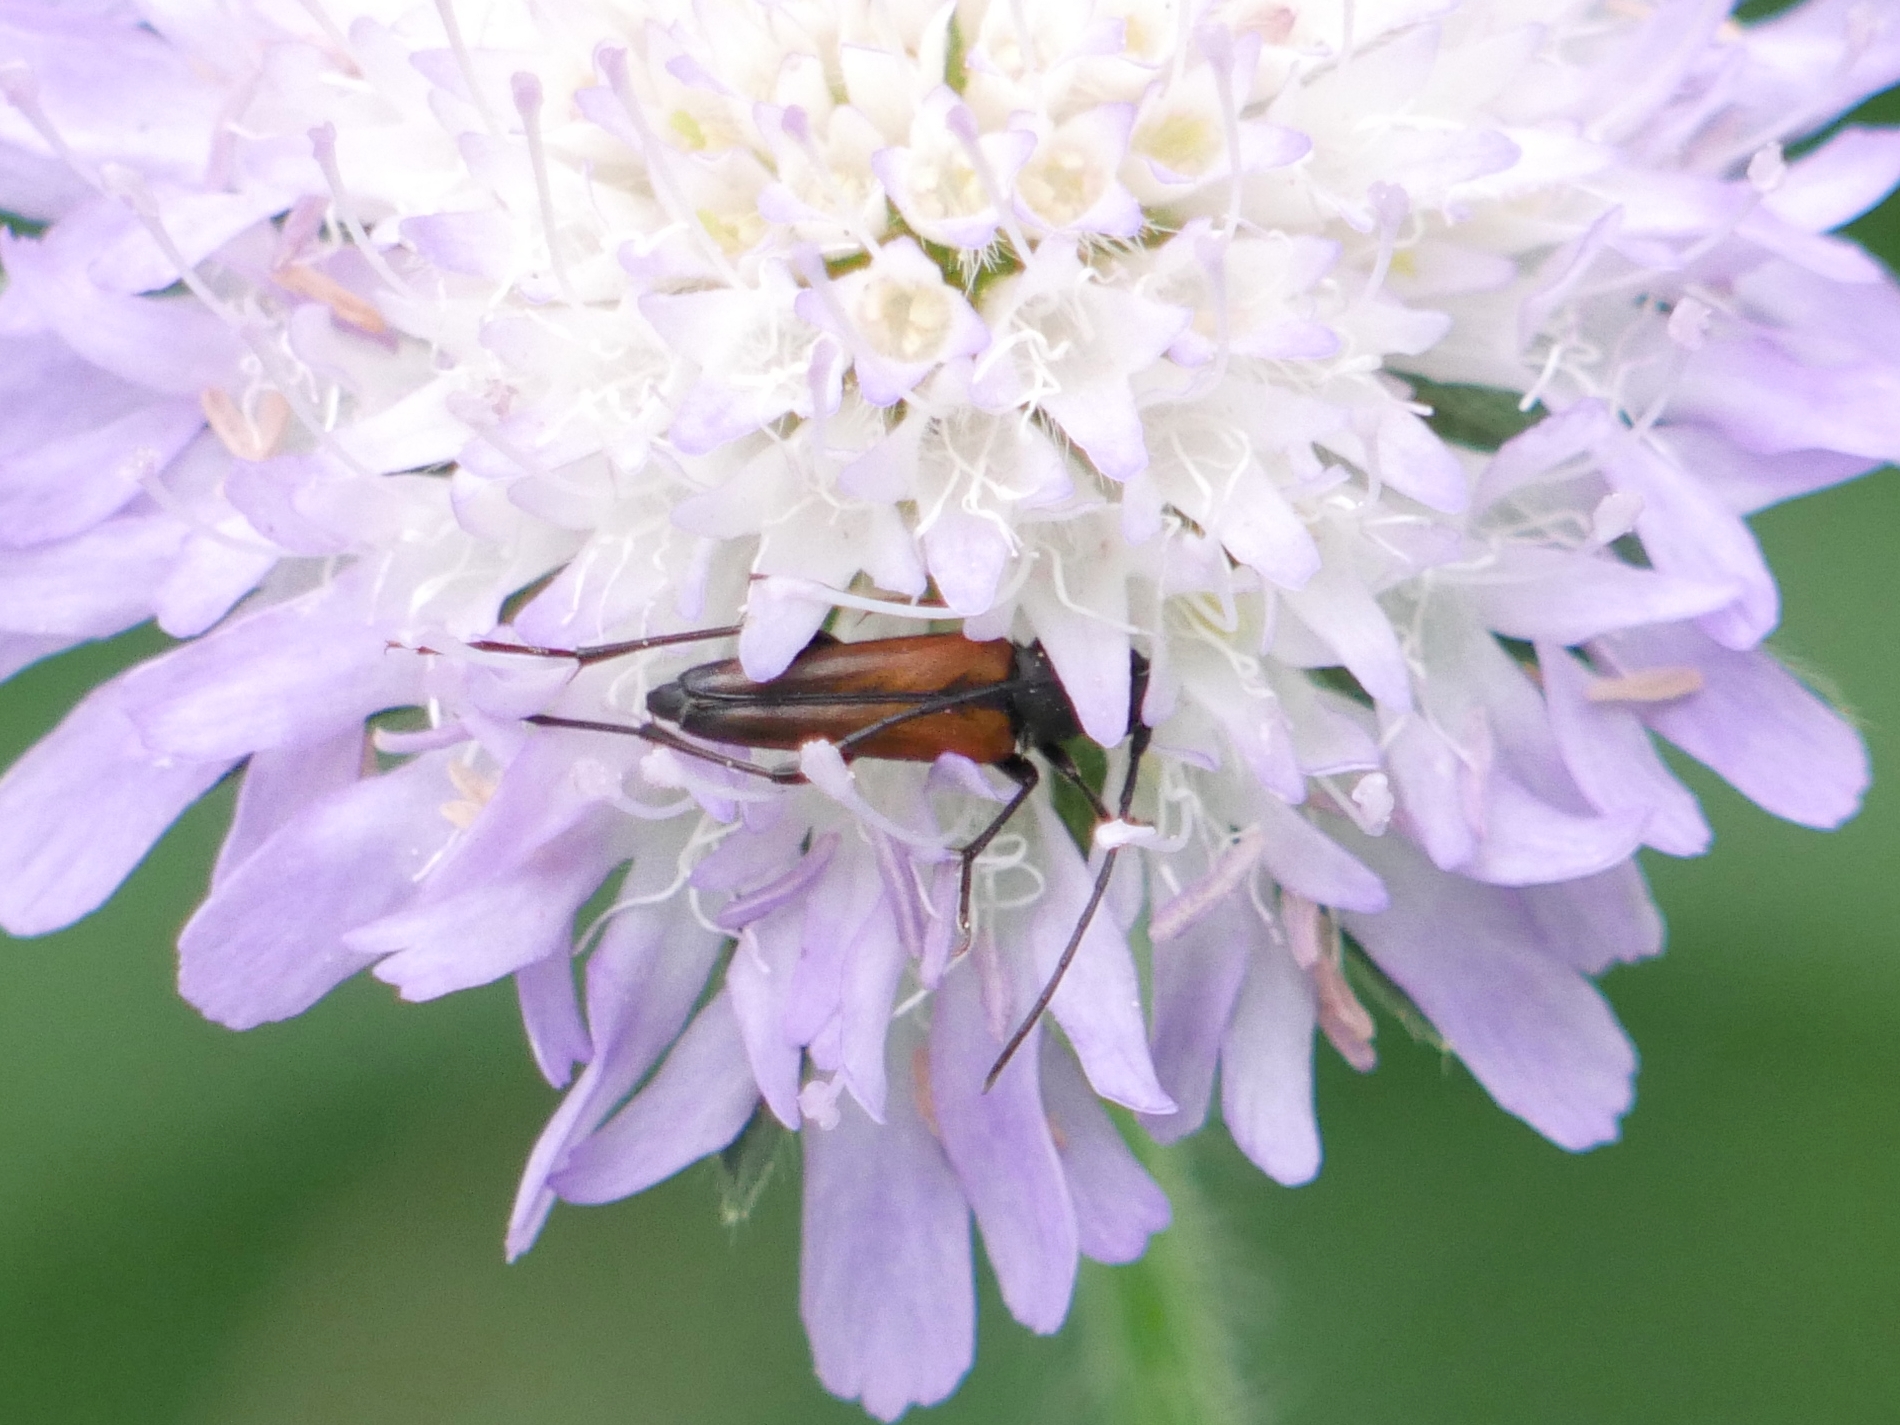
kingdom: Animalia
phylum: Arthropoda
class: Insecta
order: Coleoptera
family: Cerambycidae
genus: Stenurella
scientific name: Stenurella melanura
